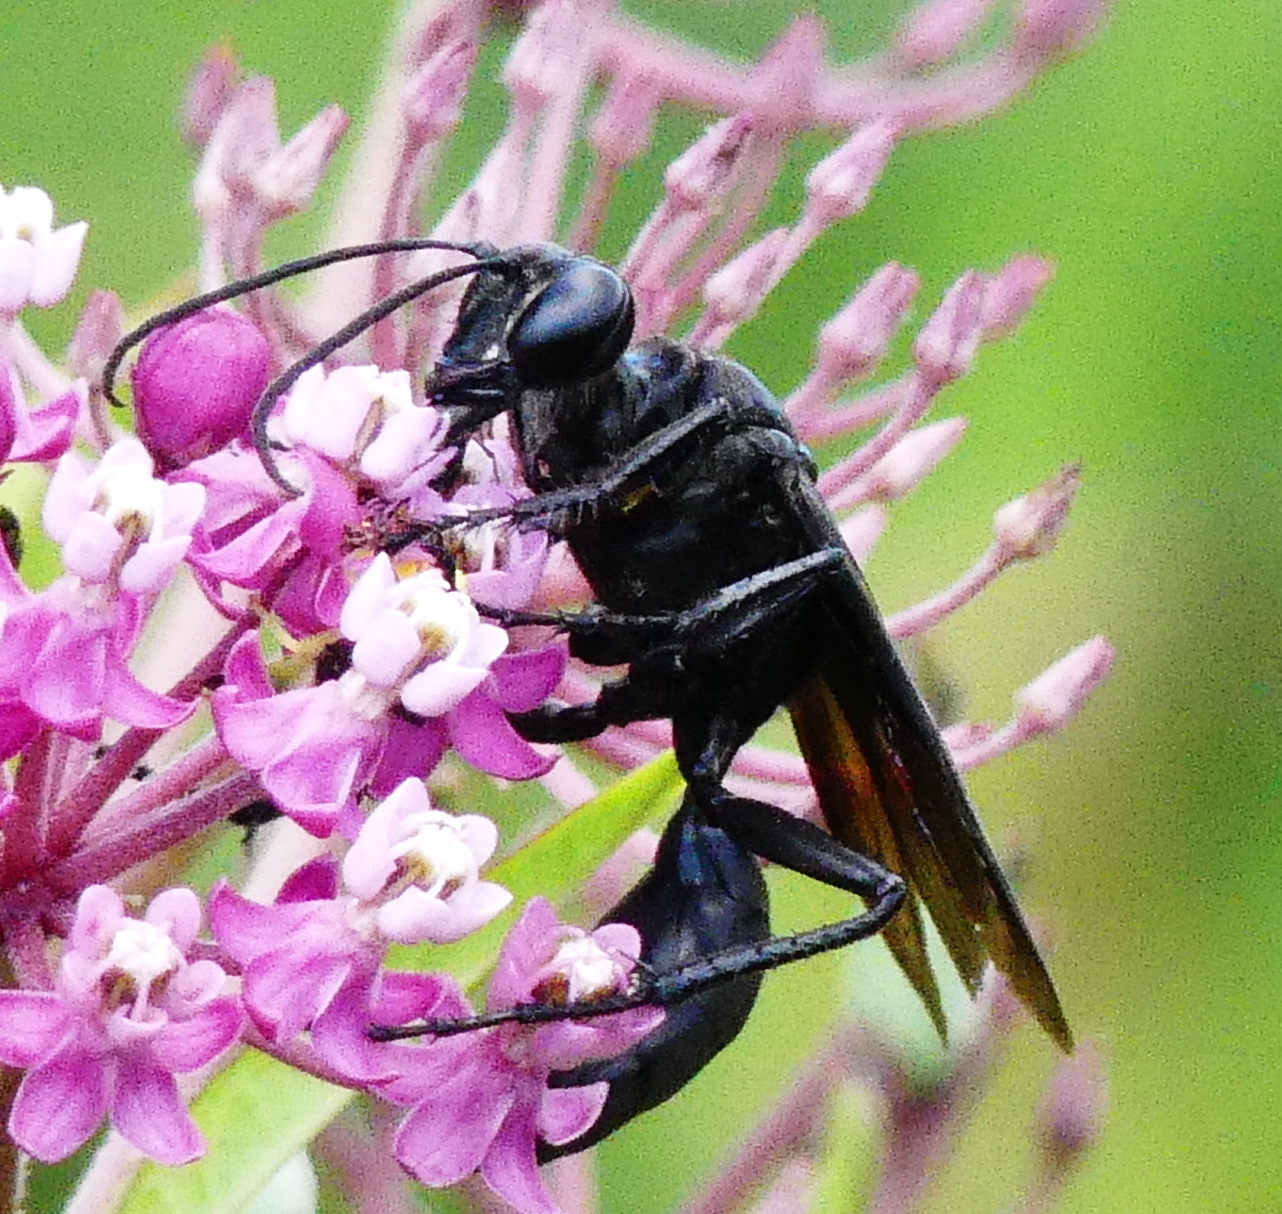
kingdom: Animalia
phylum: Arthropoda
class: Insecta
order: Hymenoptera
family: Sphecidae
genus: Sphex
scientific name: Sphex pensylvanicus
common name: Great black digger wasp
